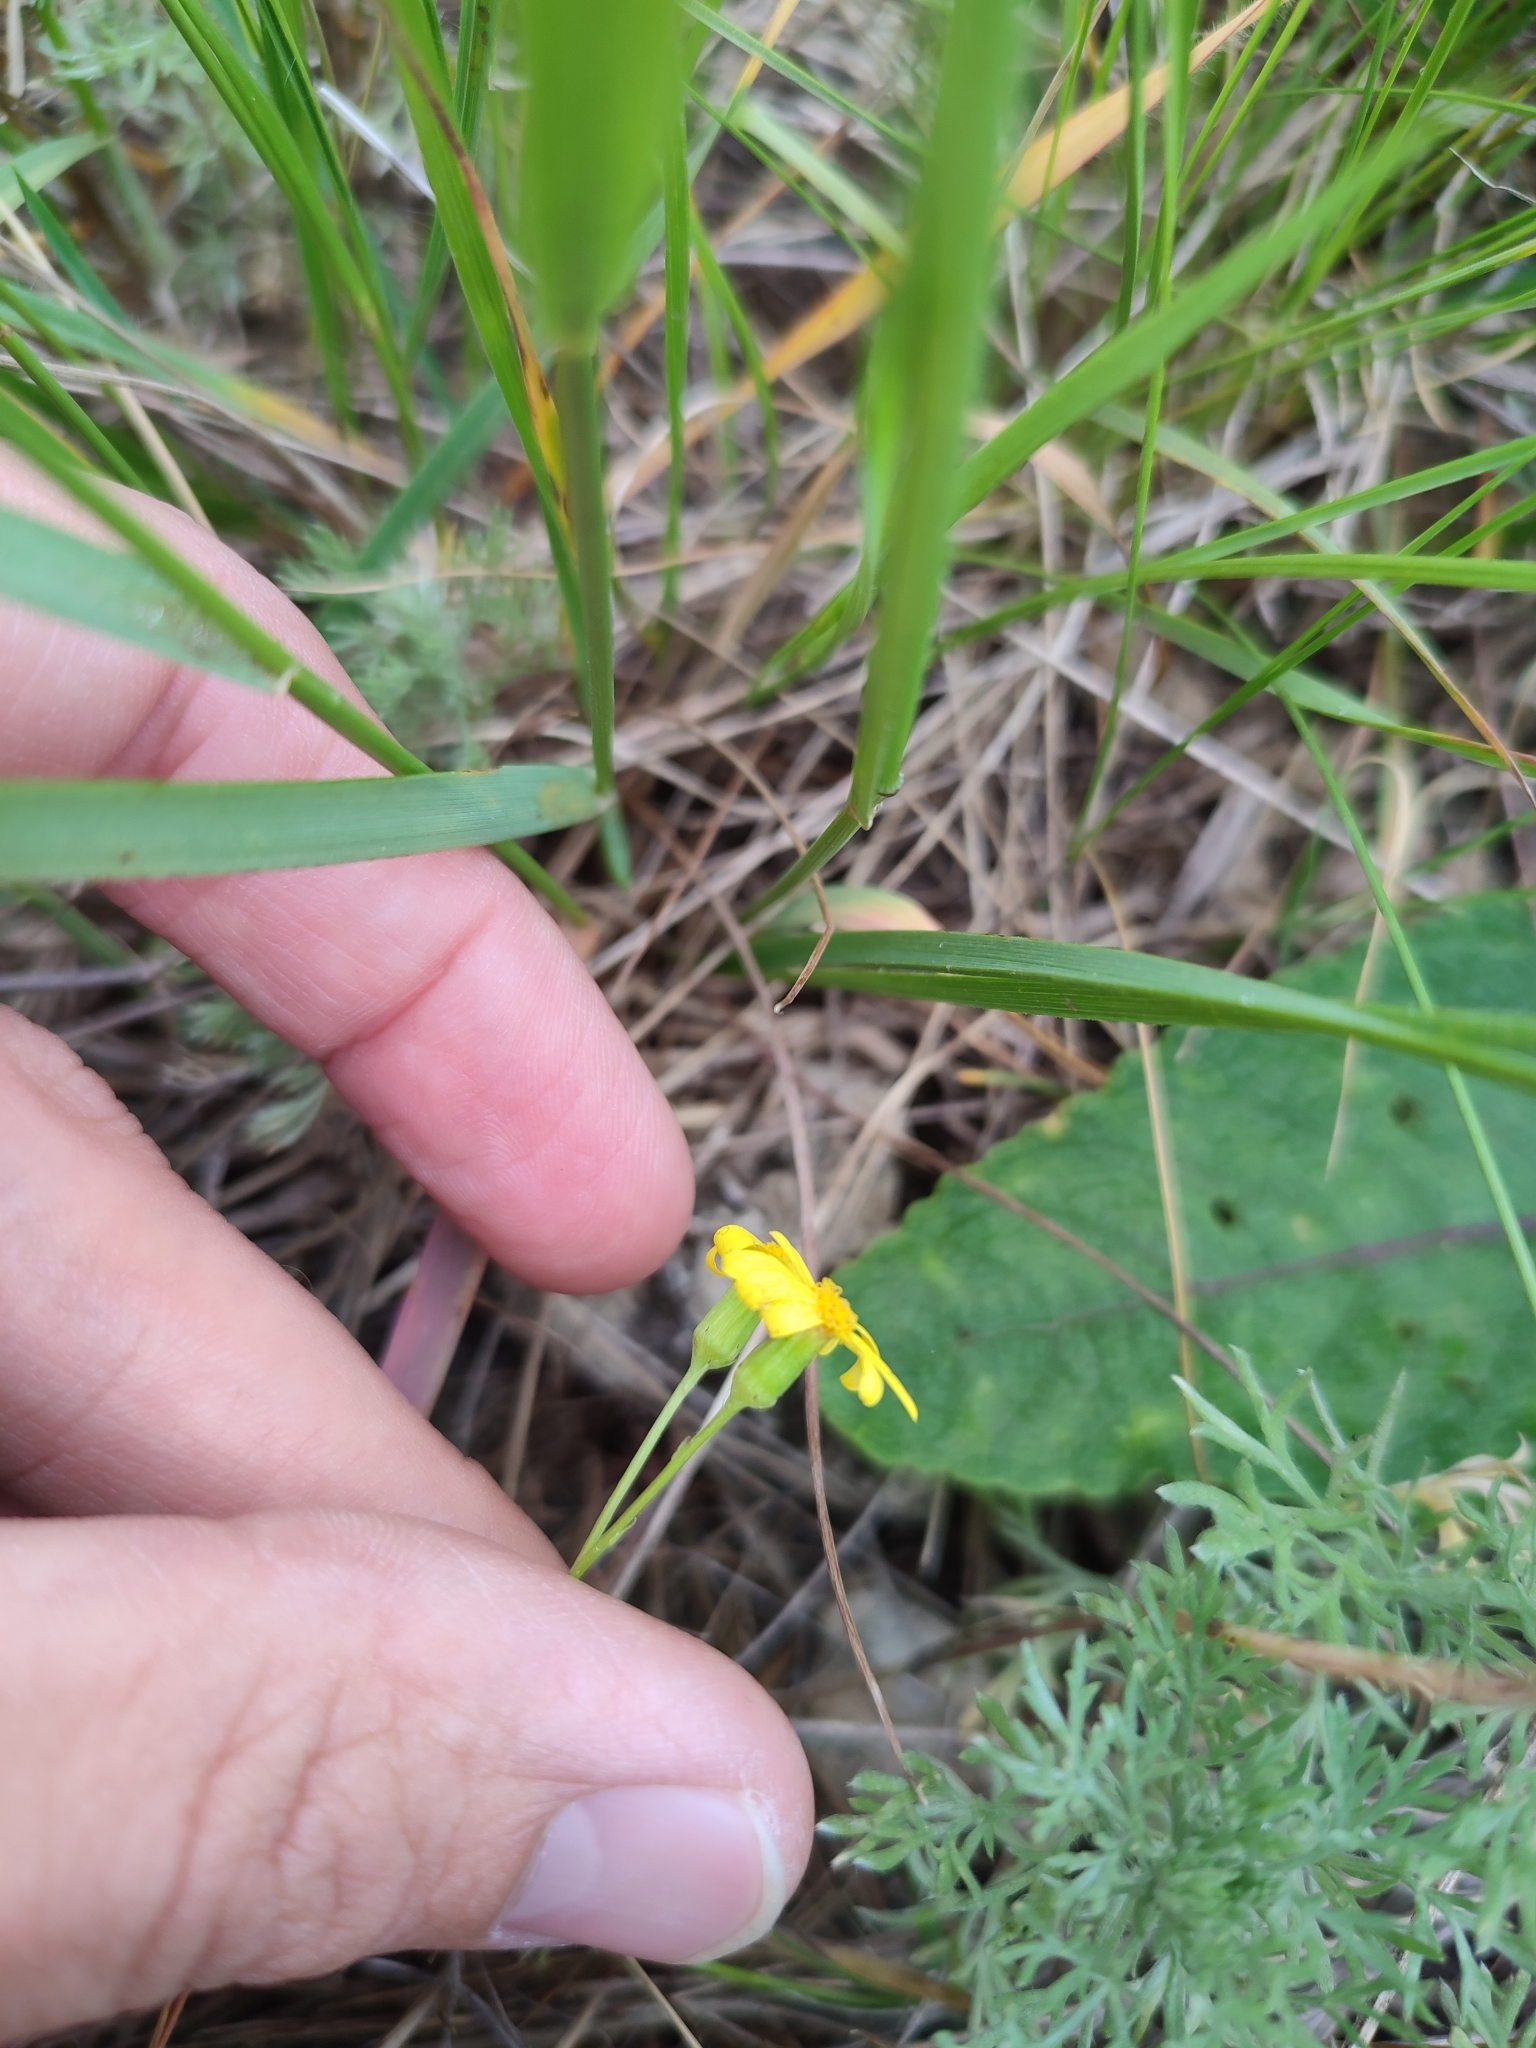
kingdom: Plantae
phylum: Tracheophyta
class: Magnoliopsida
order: Asterales
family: Asteraceae
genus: Senecio
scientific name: Senecio vernalis
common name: Eastern groundsel
